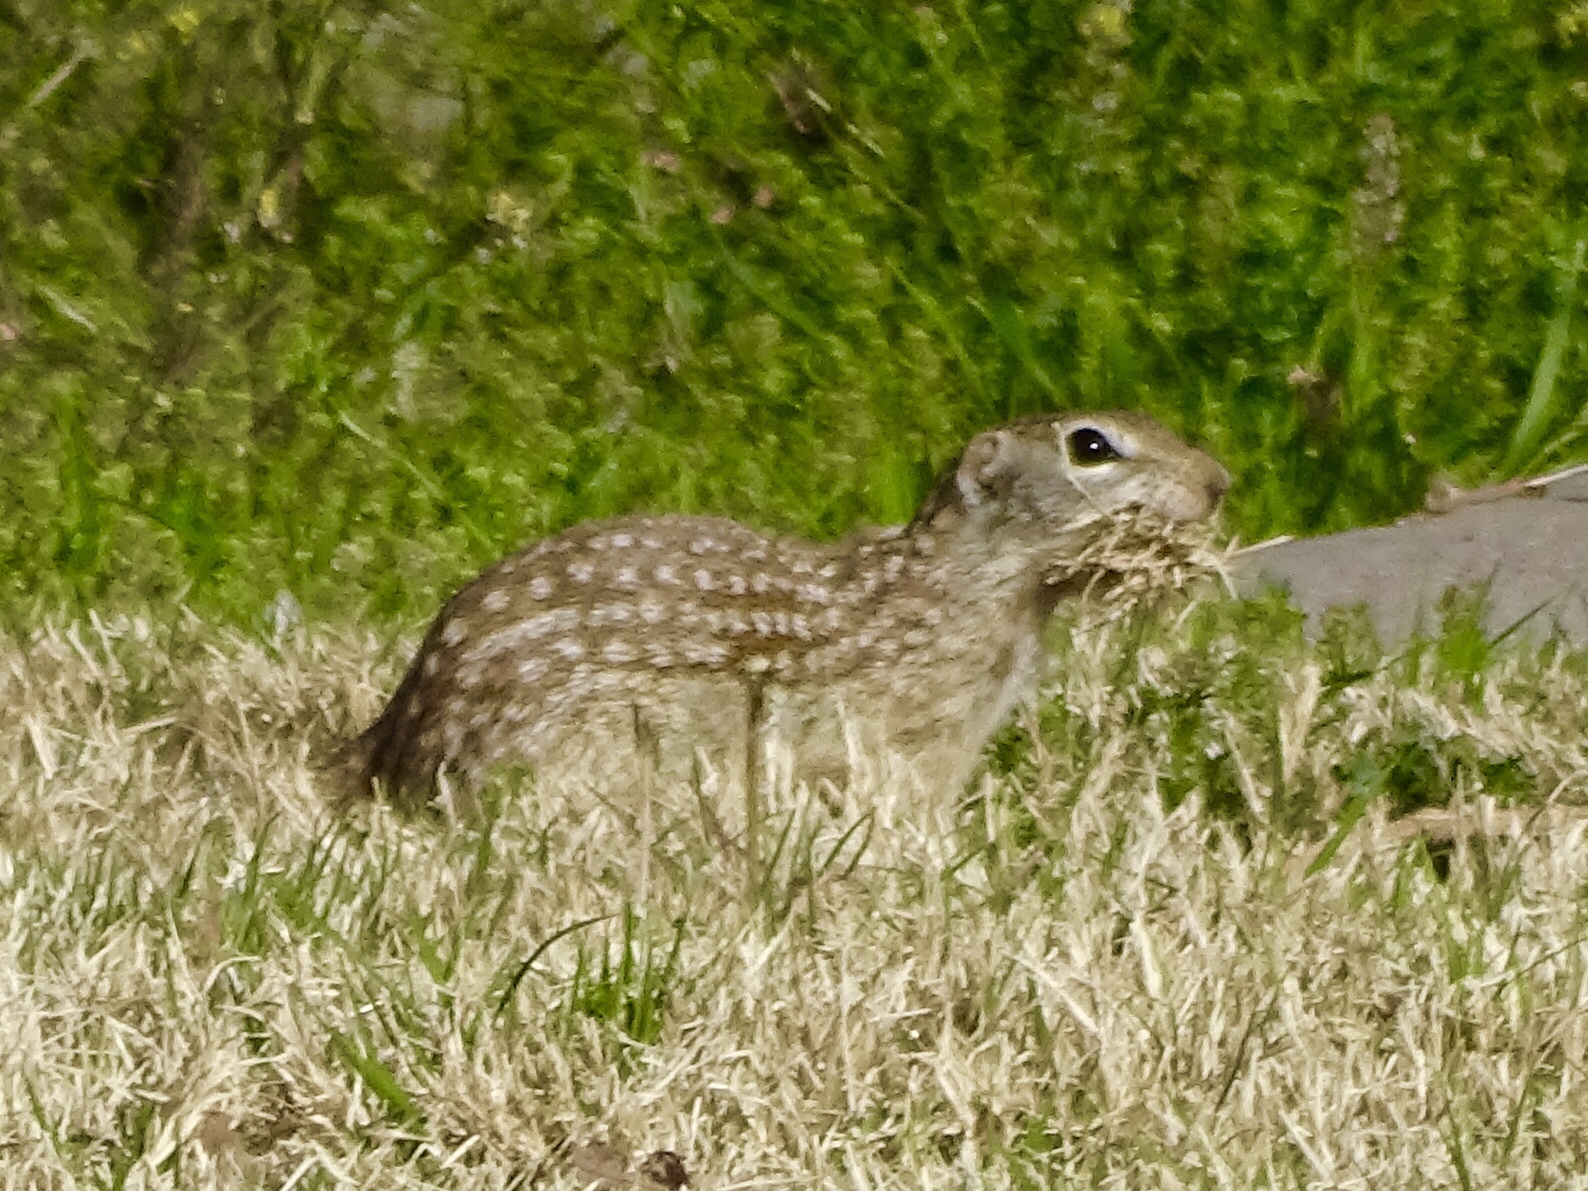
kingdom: Animalia
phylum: Chordata
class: Mammalia
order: Rodentia
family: Sciuridae
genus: Ictidomys
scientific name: Ictidomys parvidens
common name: Rio grande ground squirrel
